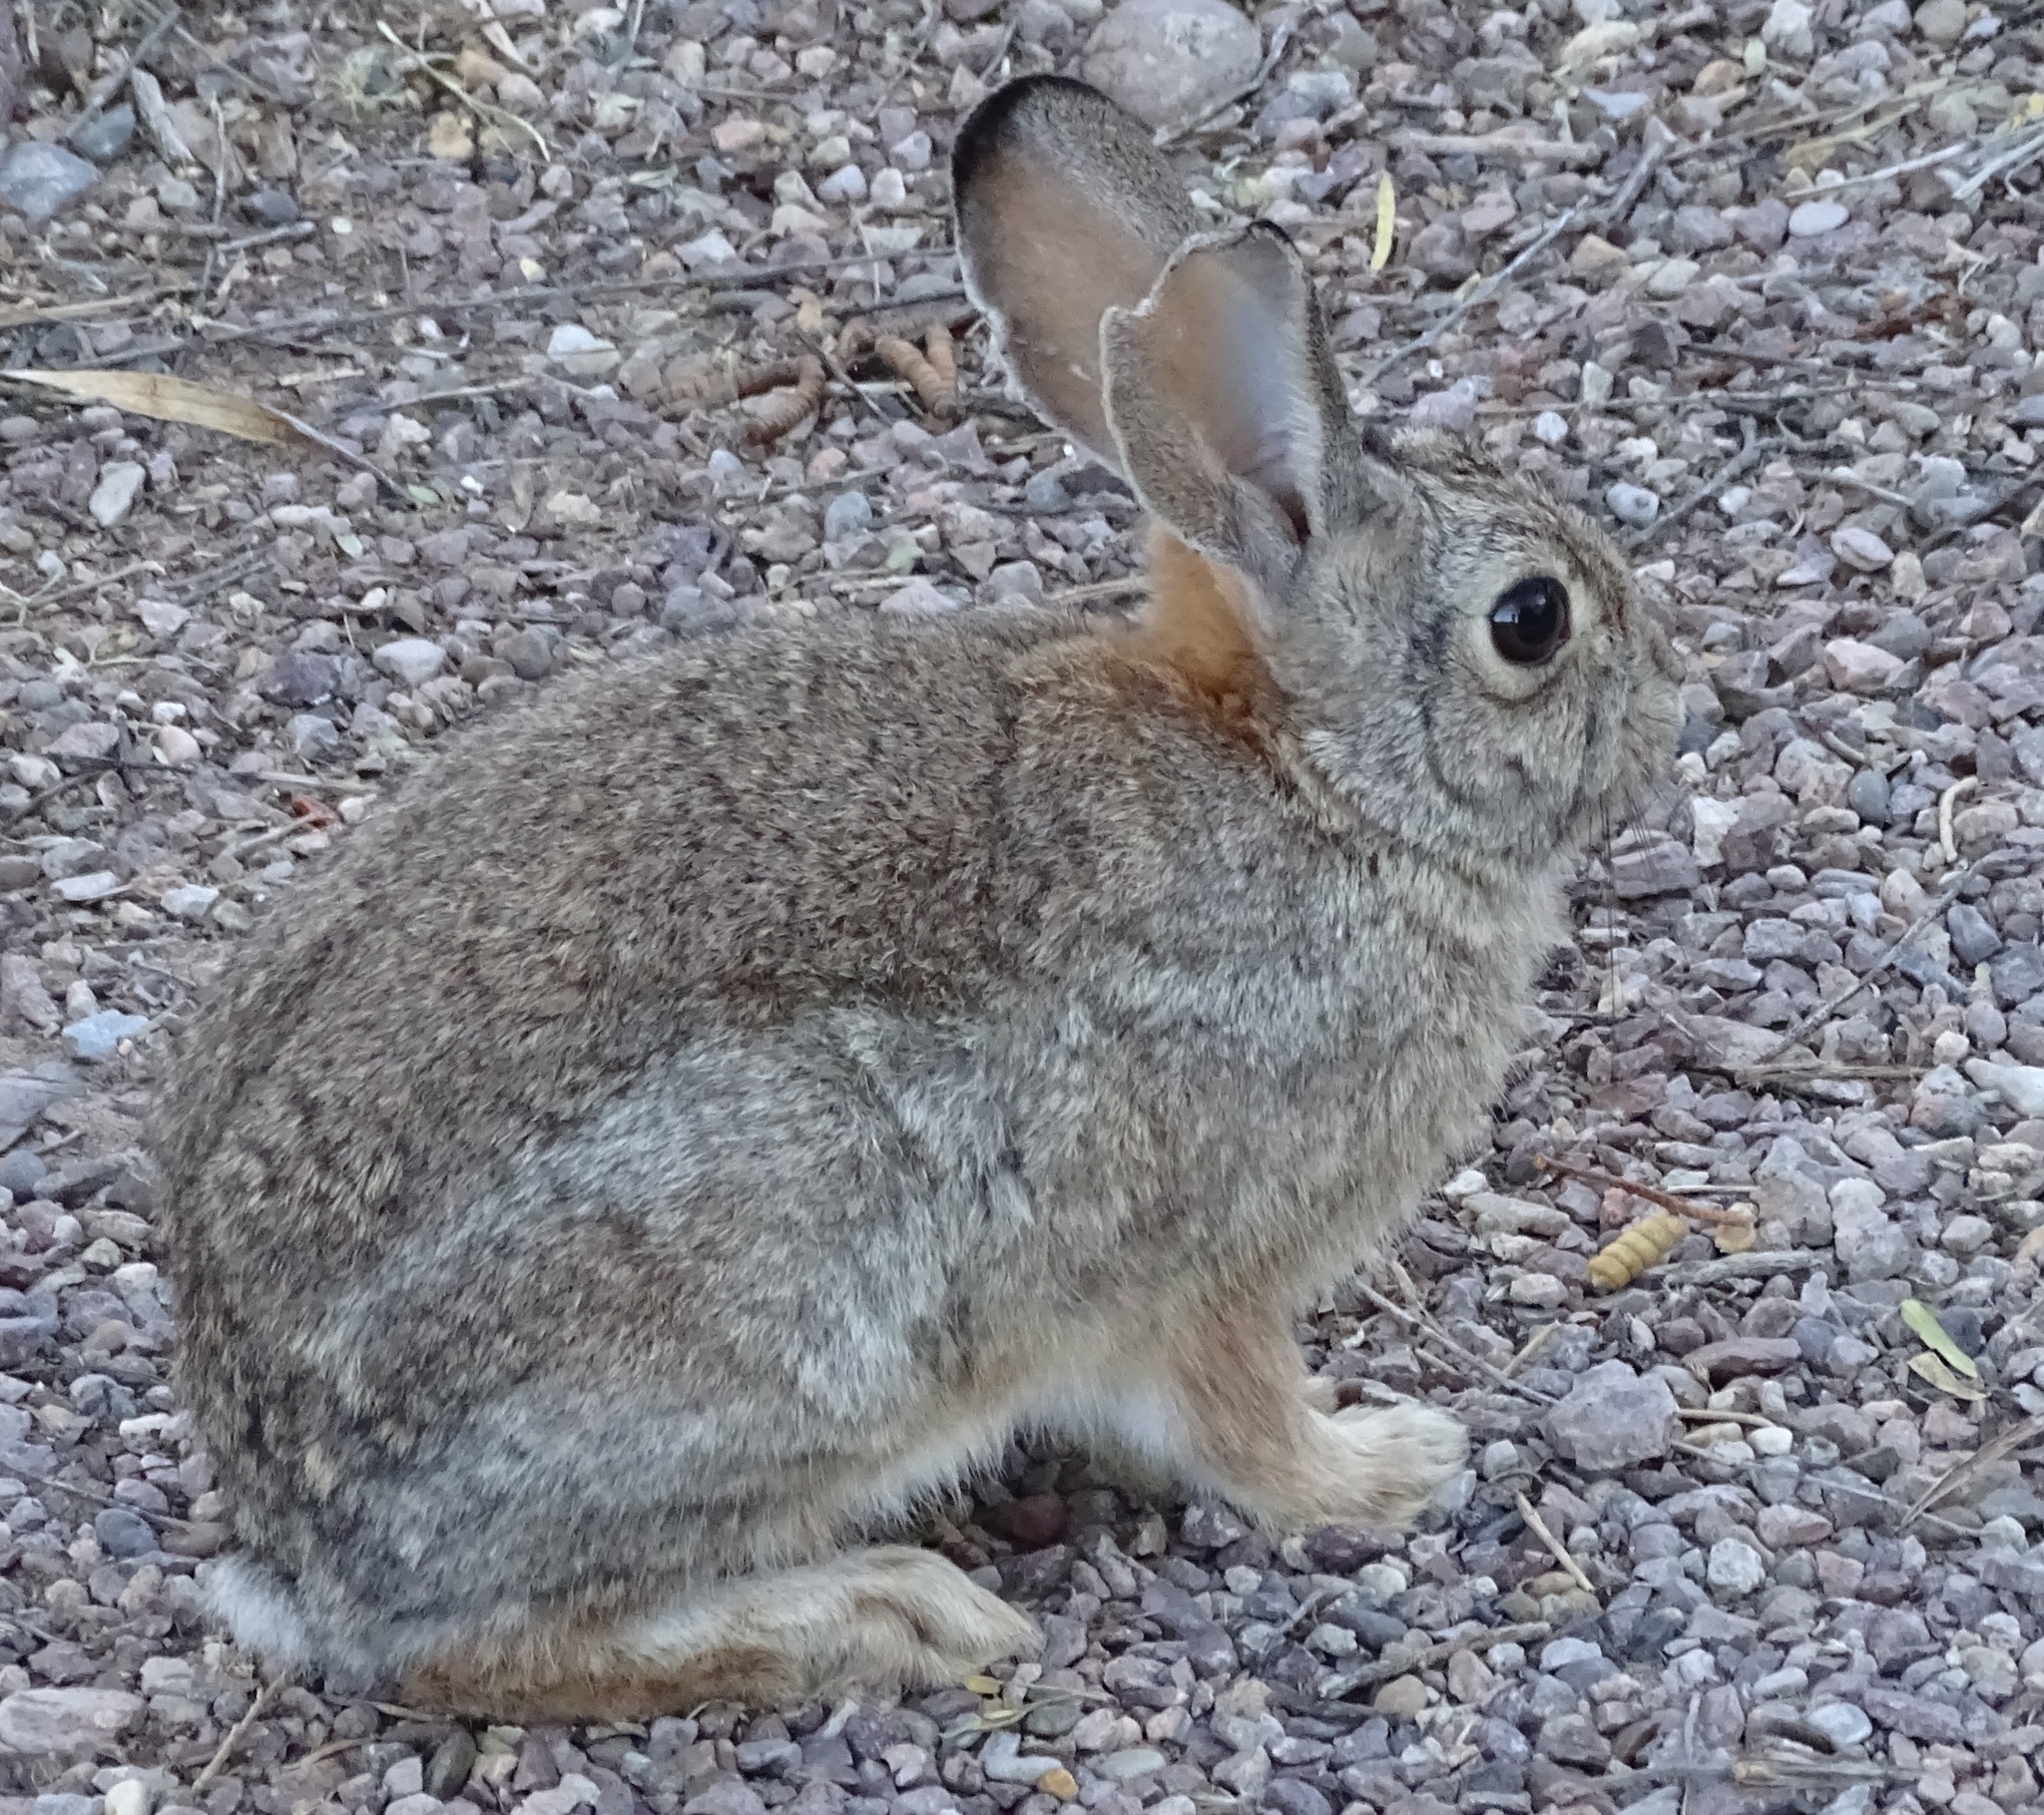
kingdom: Animalia
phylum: Chordata
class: Mammalia
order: Lagomorpha
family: Leporidae
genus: Sylvilagus
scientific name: Sylvilagus audubonii
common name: Desert cottontail
